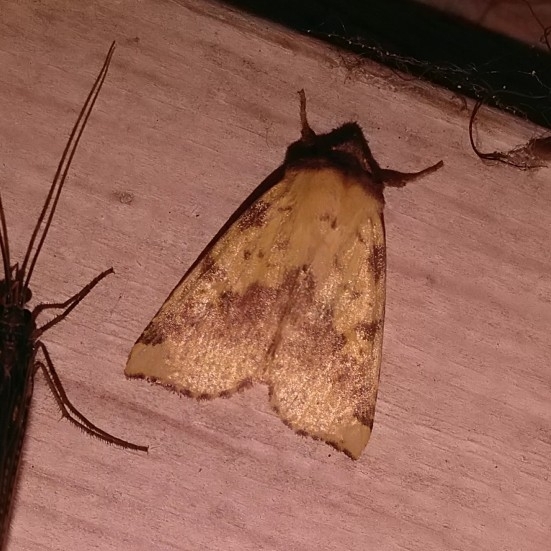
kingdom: Animalia
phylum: Arthropoda
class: Insecta
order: Lepidoptera
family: Noctuidae
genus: Xanthia
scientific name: Xanthia togata
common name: Pink-barred sallow
